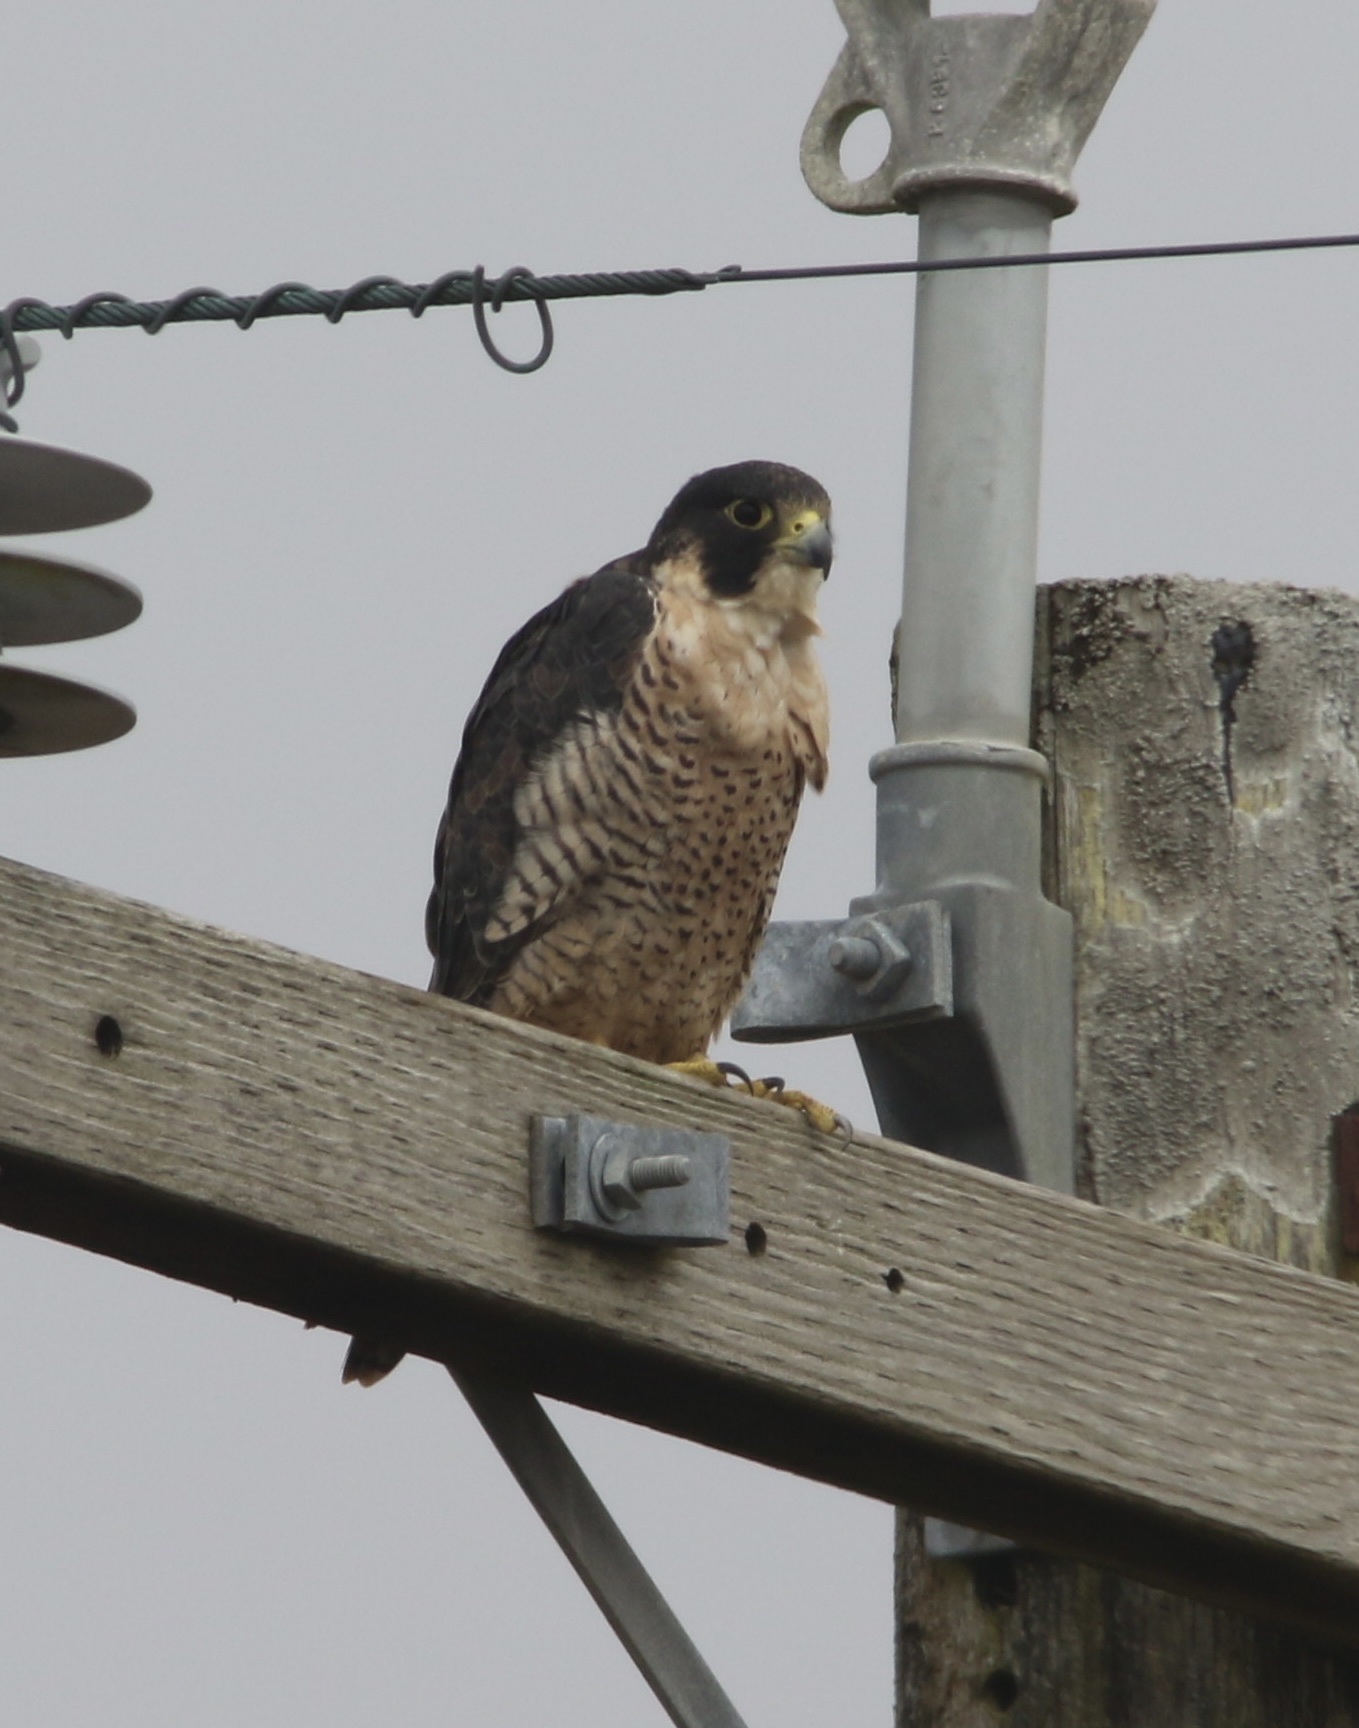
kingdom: Animalia
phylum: Chordata
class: Aves
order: Falconiformes
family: Falconidae
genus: Falco
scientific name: Falco peregrinus
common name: Peregrine falcon
